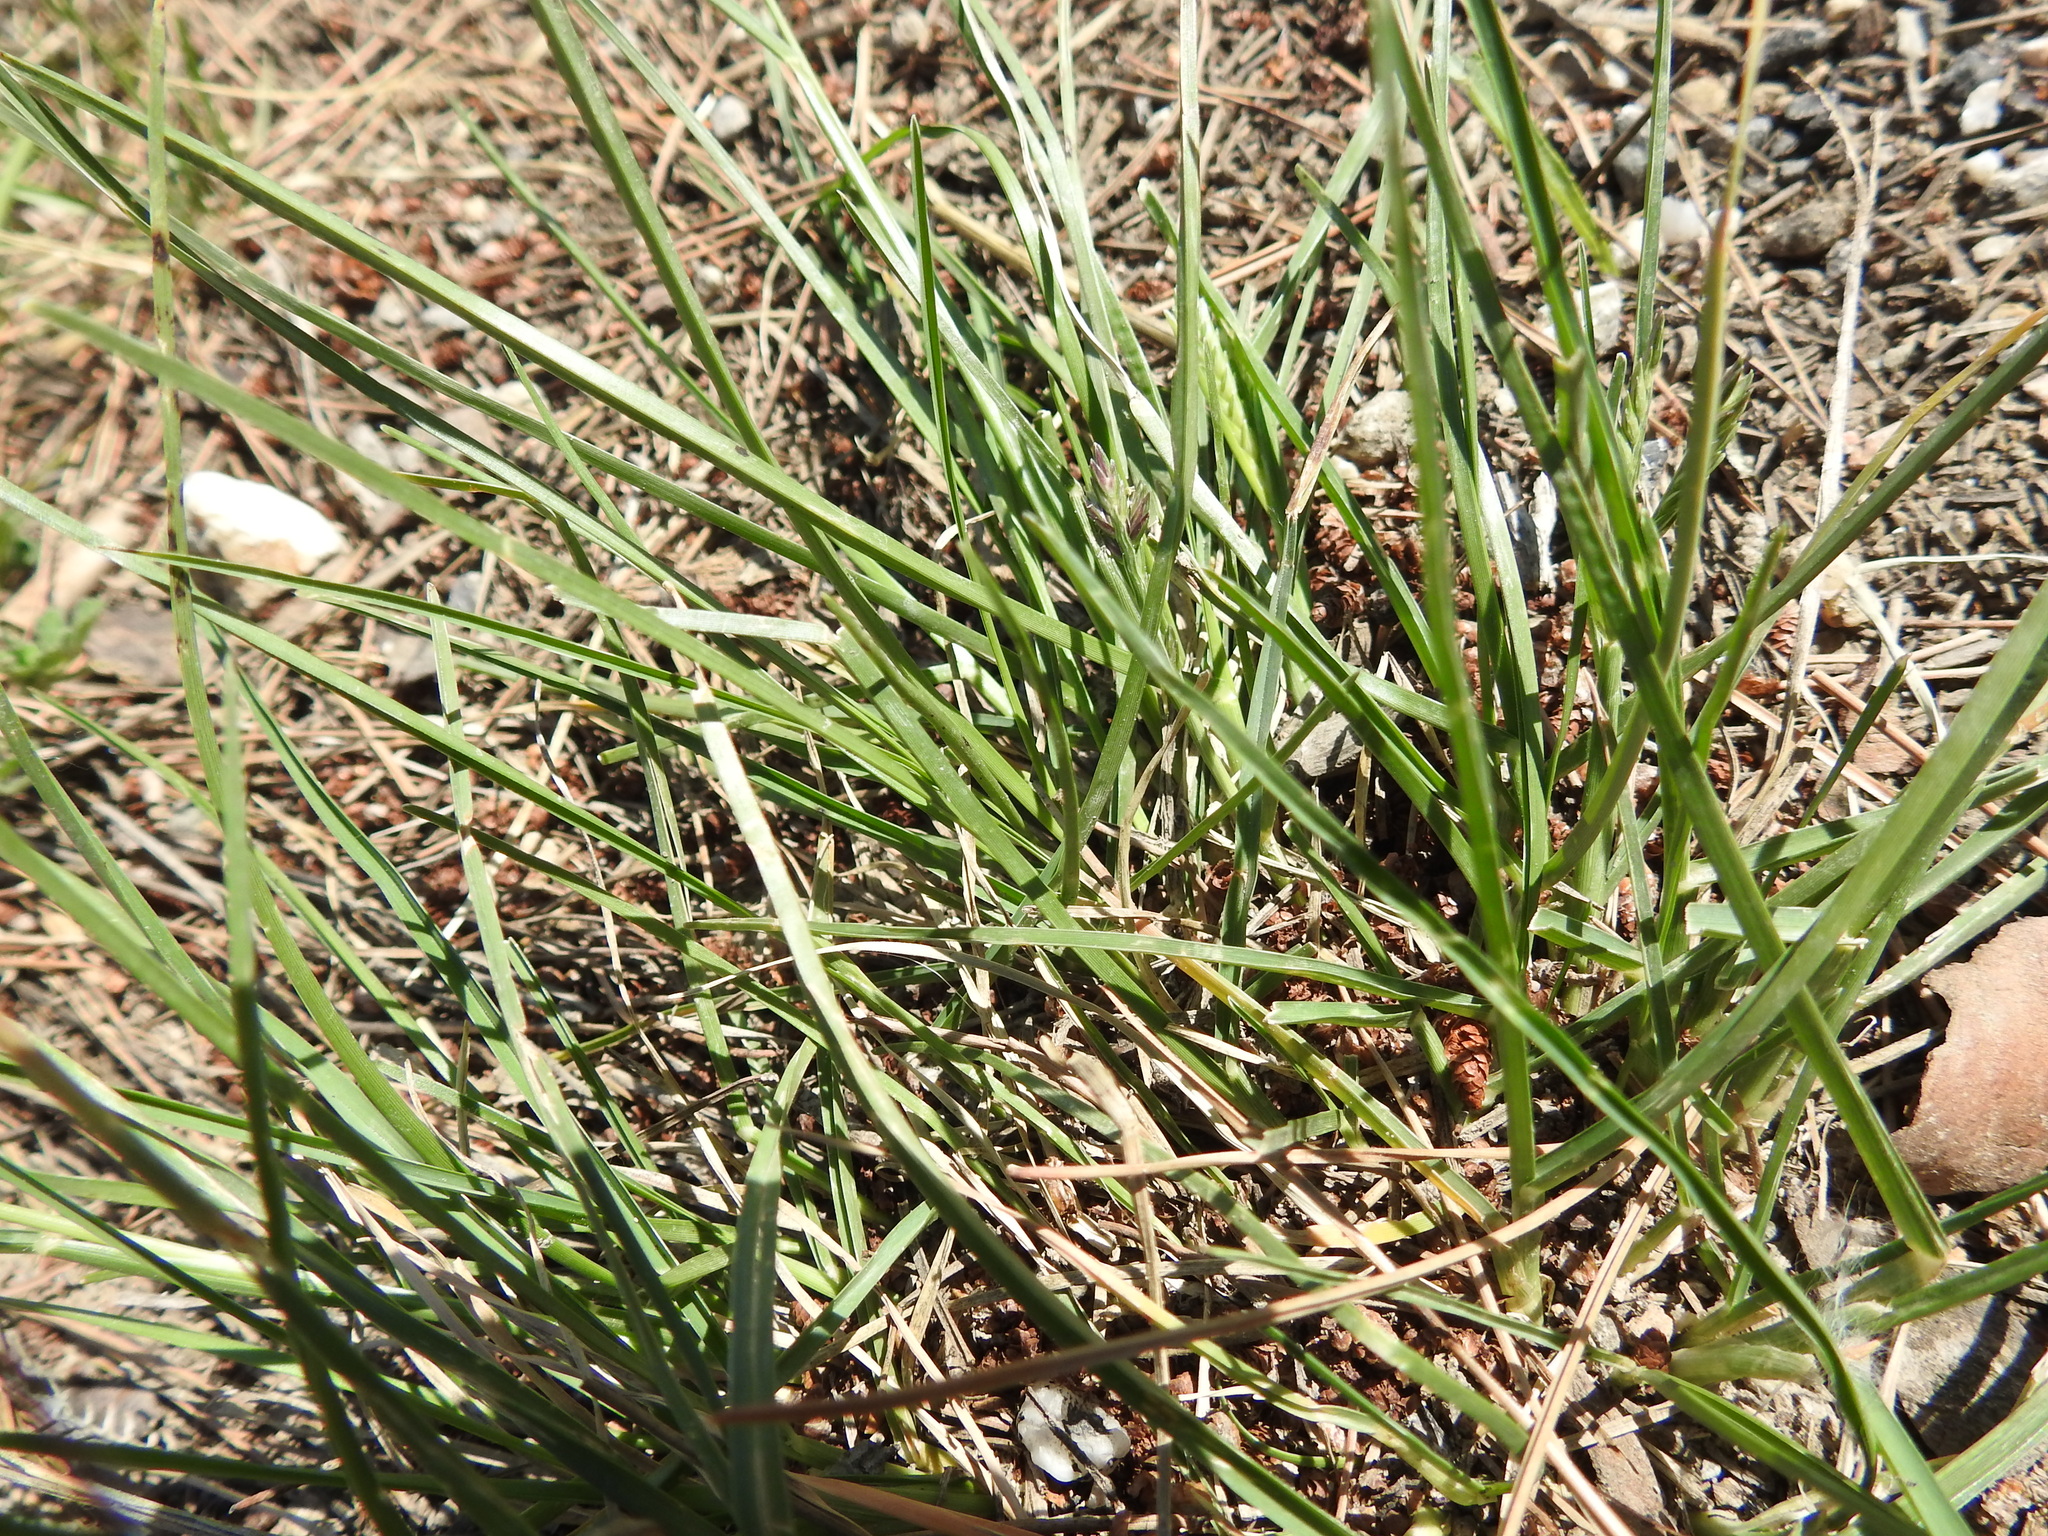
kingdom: Plantae
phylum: Tracheophyta
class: Liliopsida
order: Poales
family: Poaceae
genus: Eleusine
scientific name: Eleusine tristachya
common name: American yard-grass
